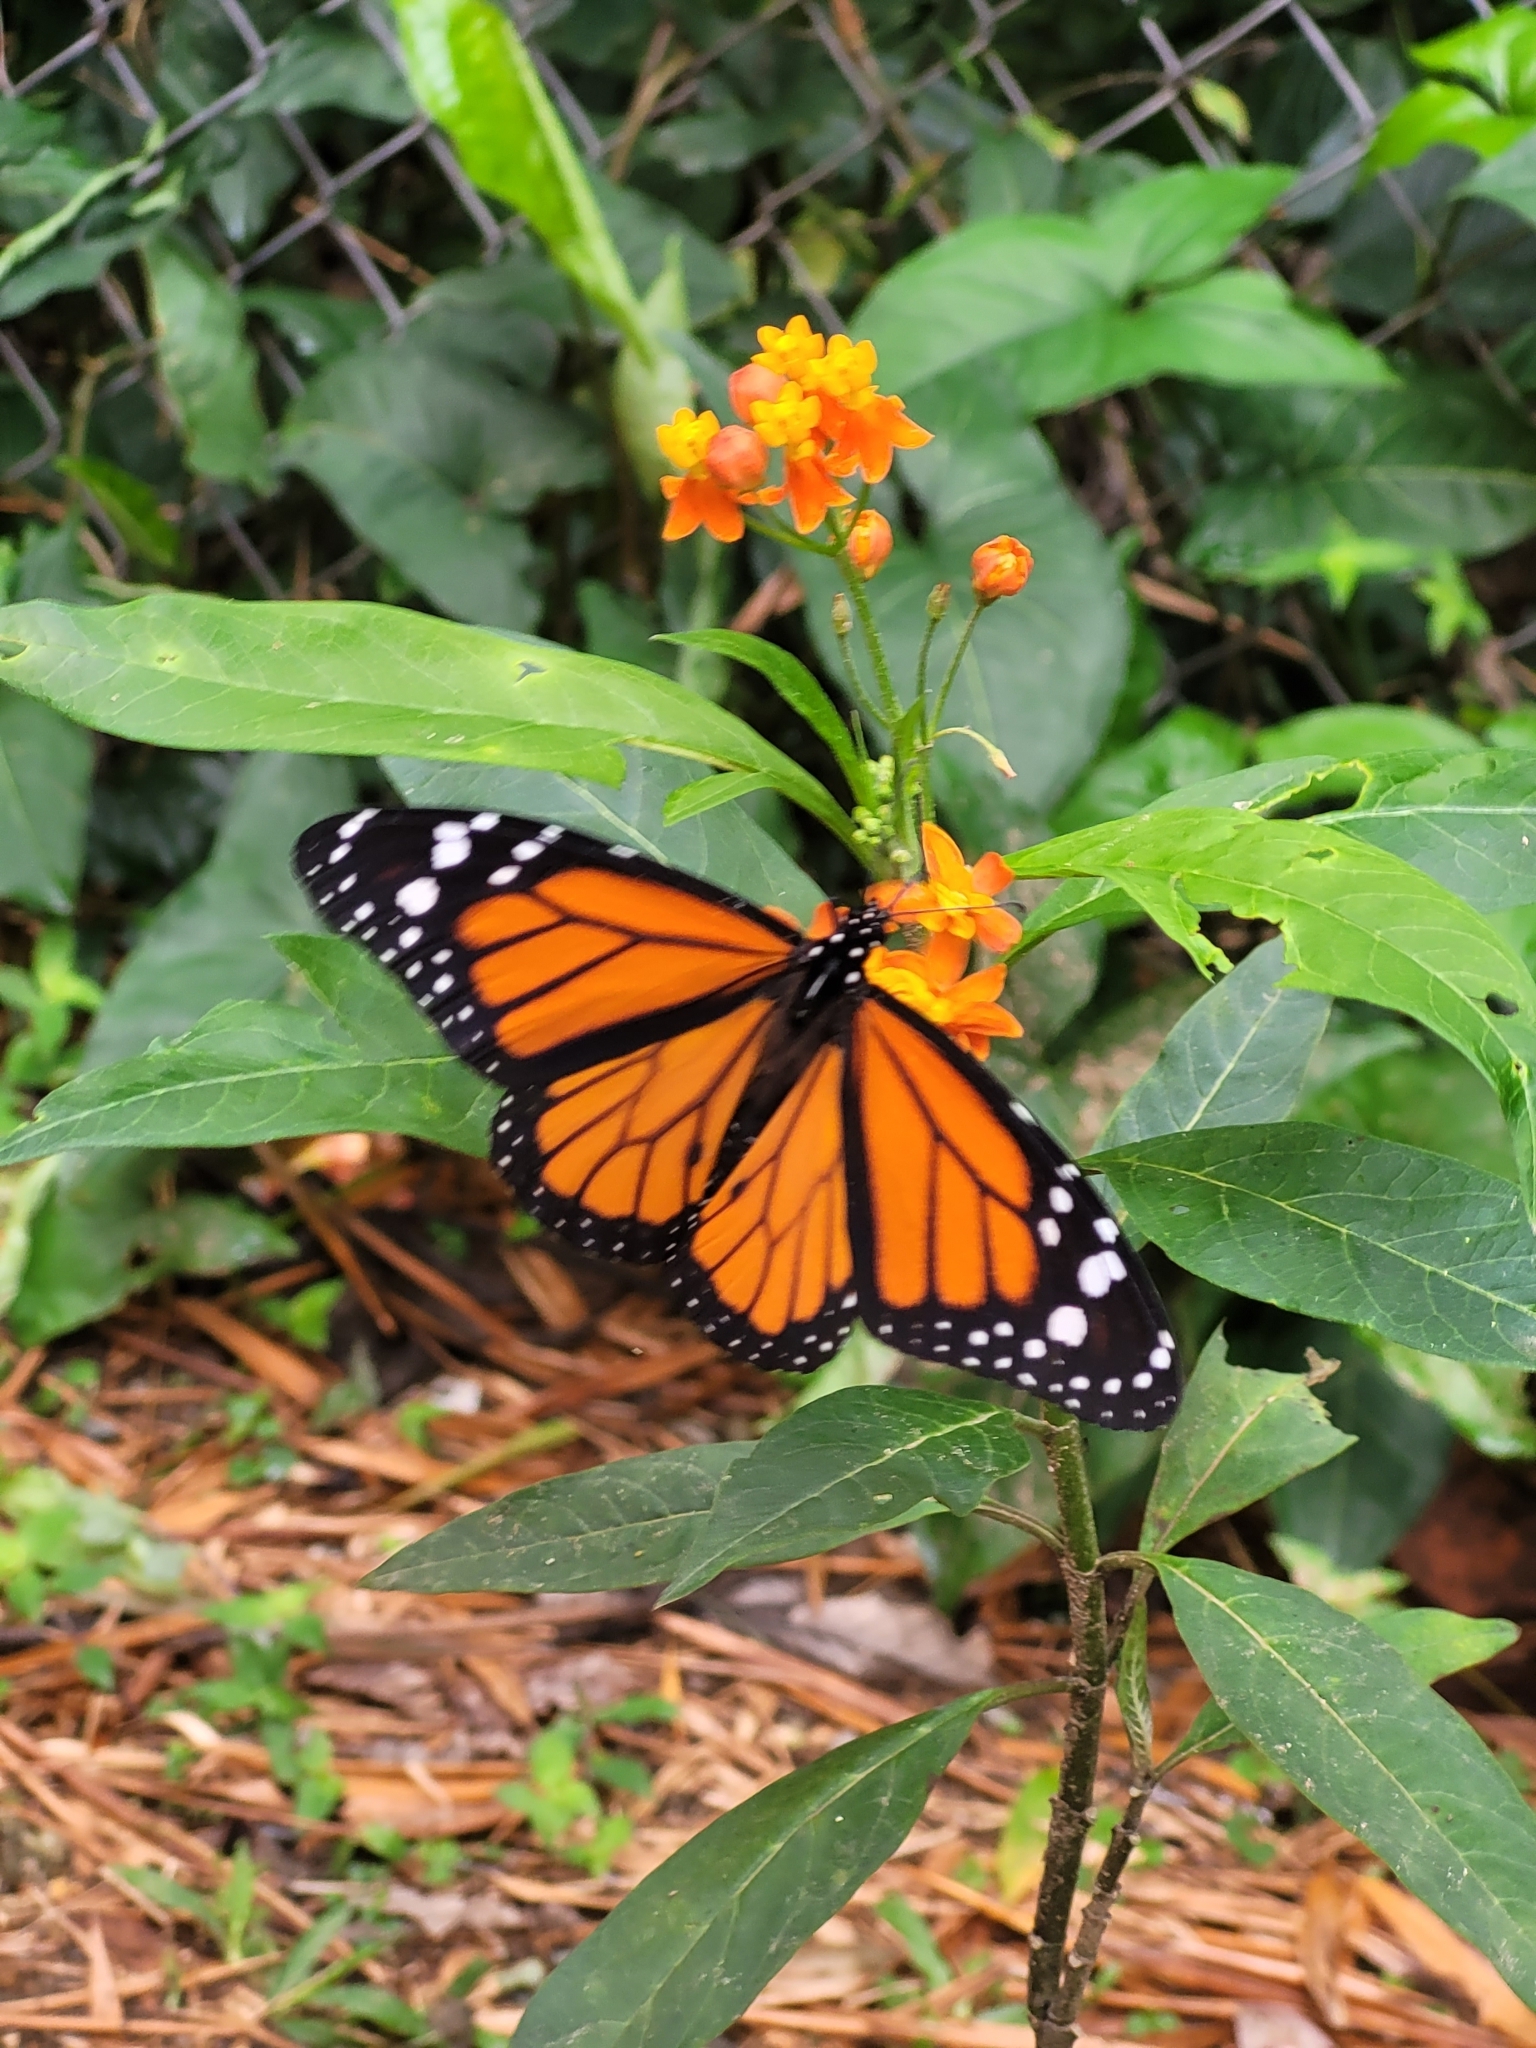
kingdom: Animalia
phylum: Arthropoda
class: Insecta
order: Lepidoptera
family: Nymphalidae
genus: Danaus
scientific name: Danaus plexippus
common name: Monarch
